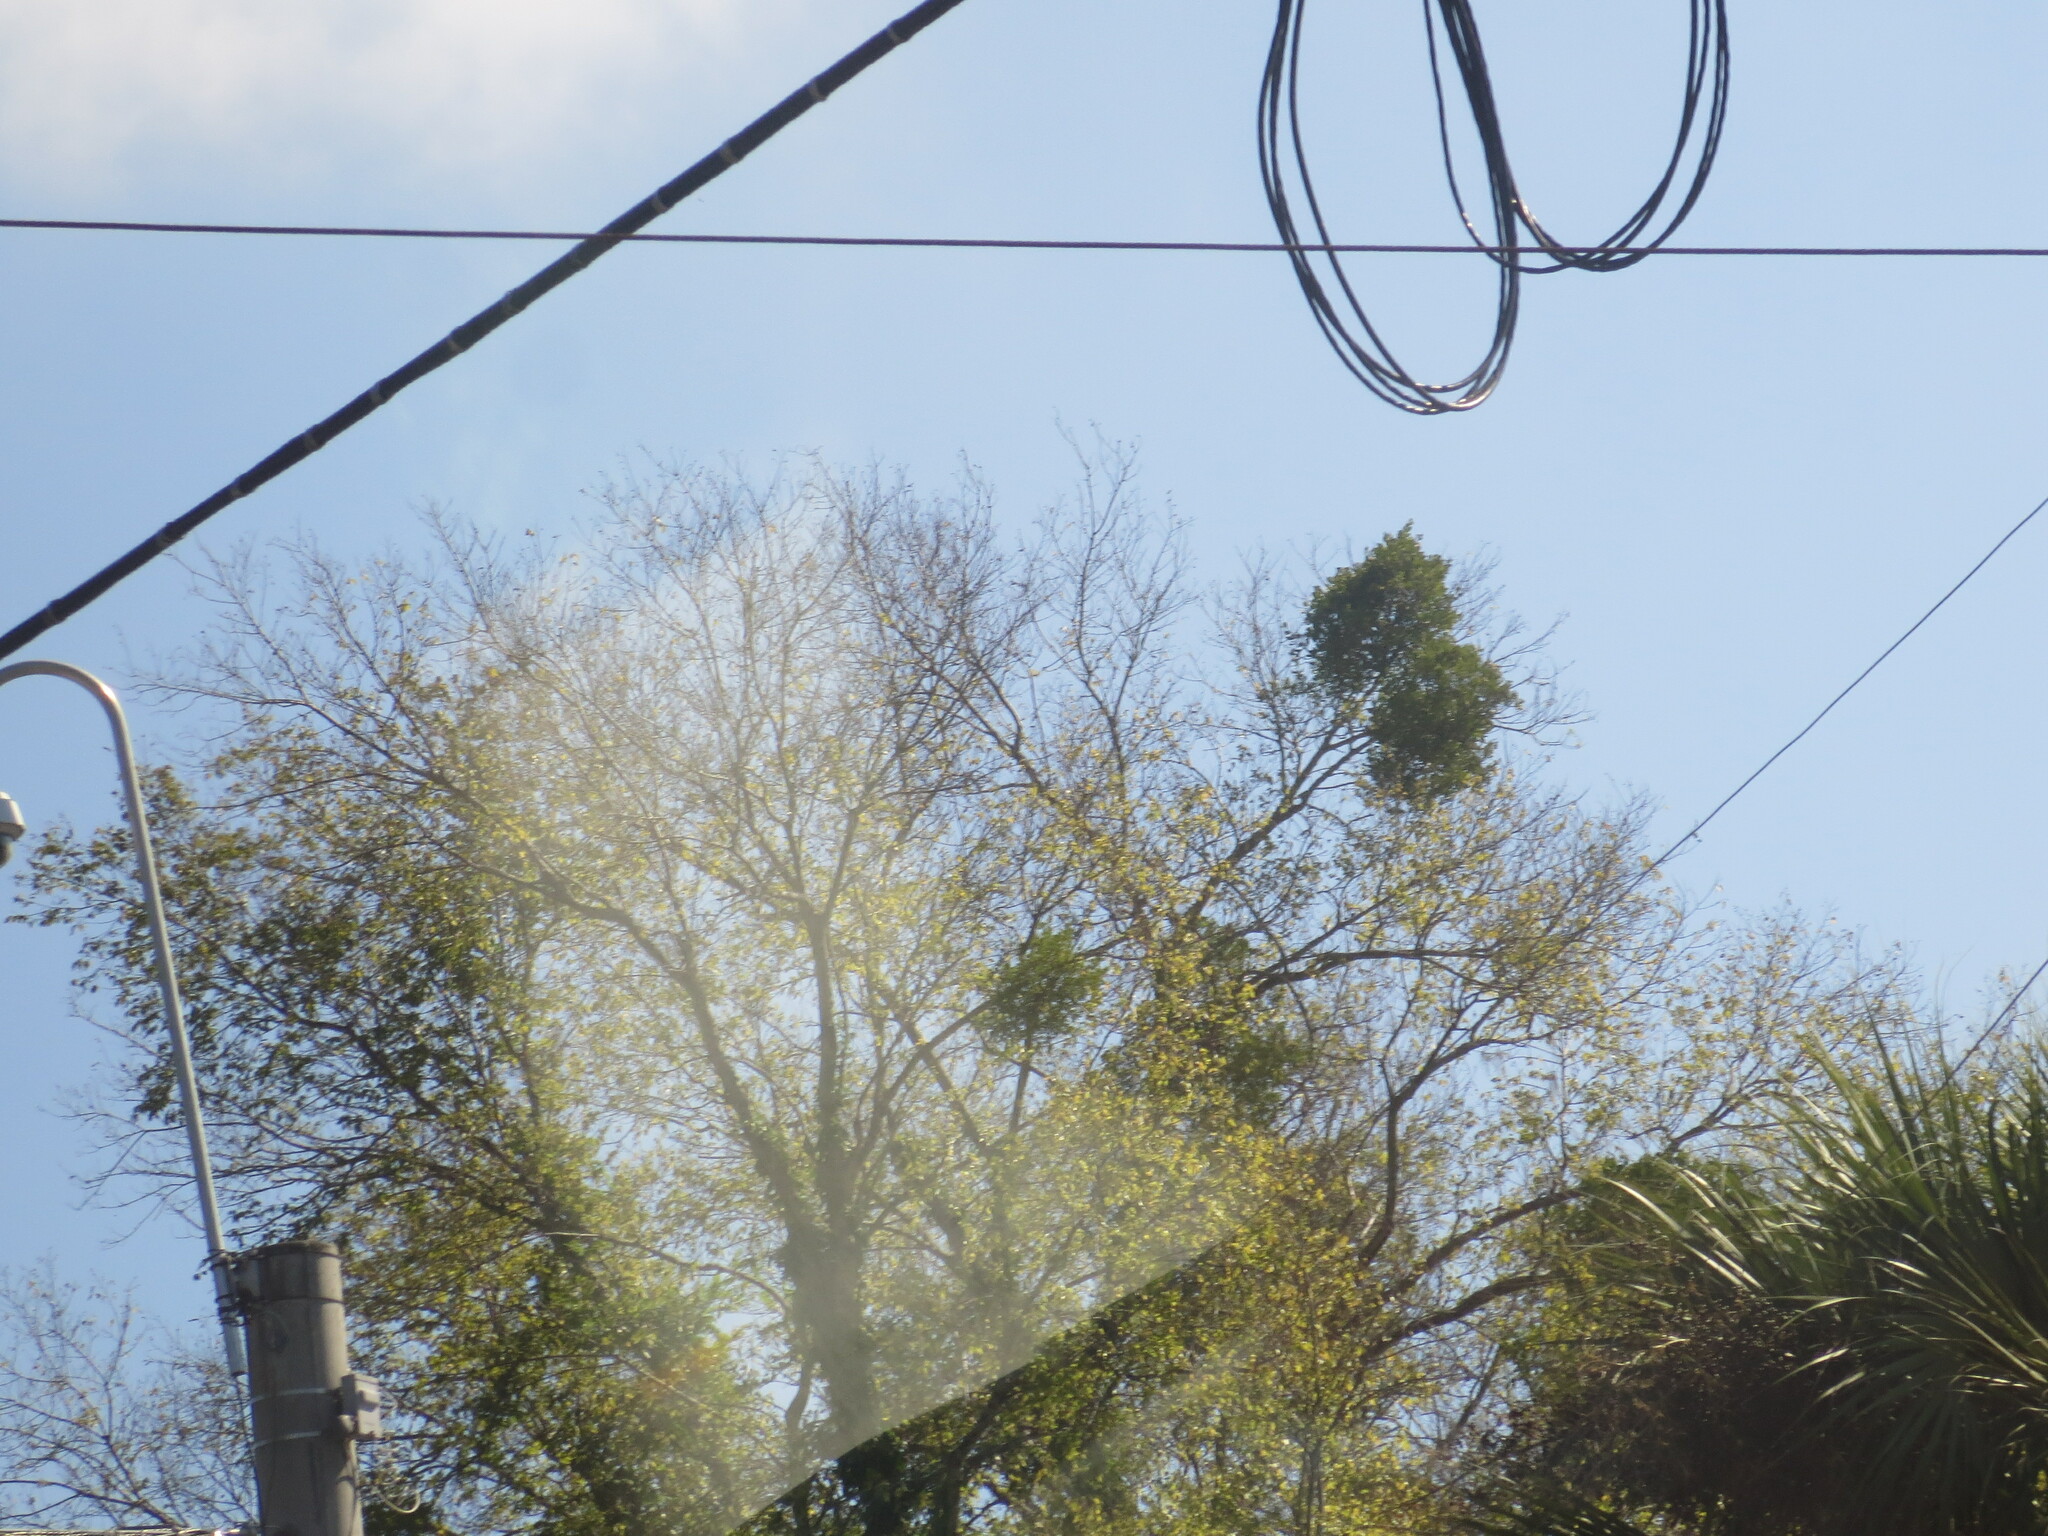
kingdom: Plantae
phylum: Tracheophyta
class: Magnoliopsida
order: Santalales
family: Viscaceae
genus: Phoradendron
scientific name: Phoradendron leucarpum
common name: Pacific mistletoe
